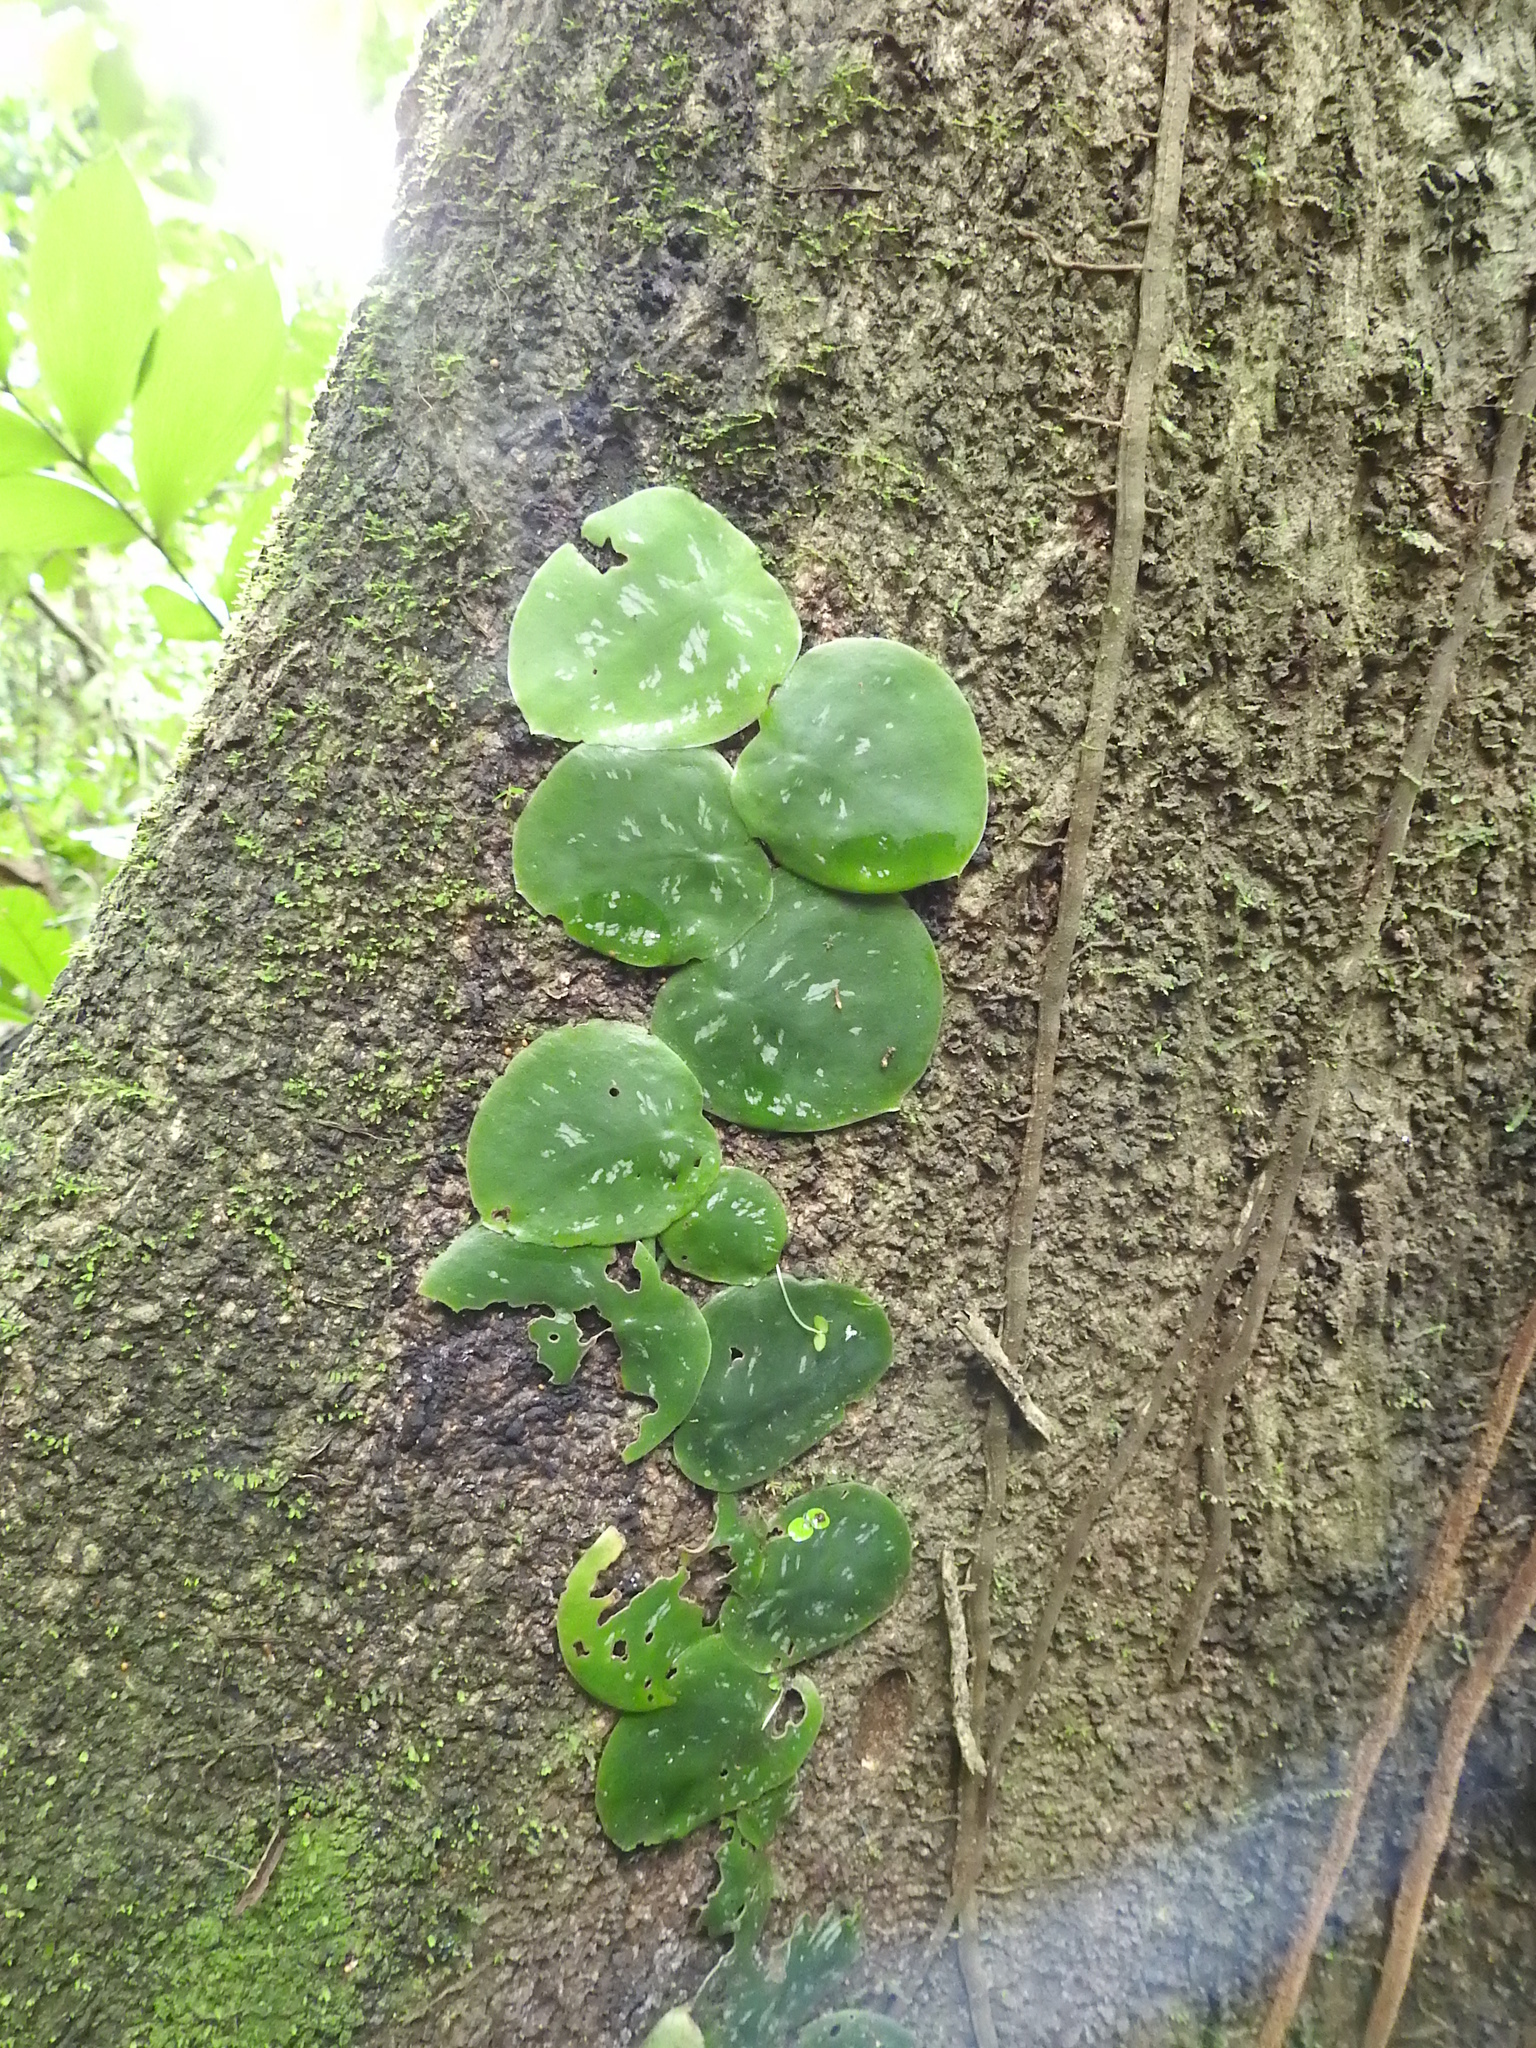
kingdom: Plantae
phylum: Tracheophyta
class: Liliopsida
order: Alismatales
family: Araceae
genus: Monstera
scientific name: Monstera tuberculata
